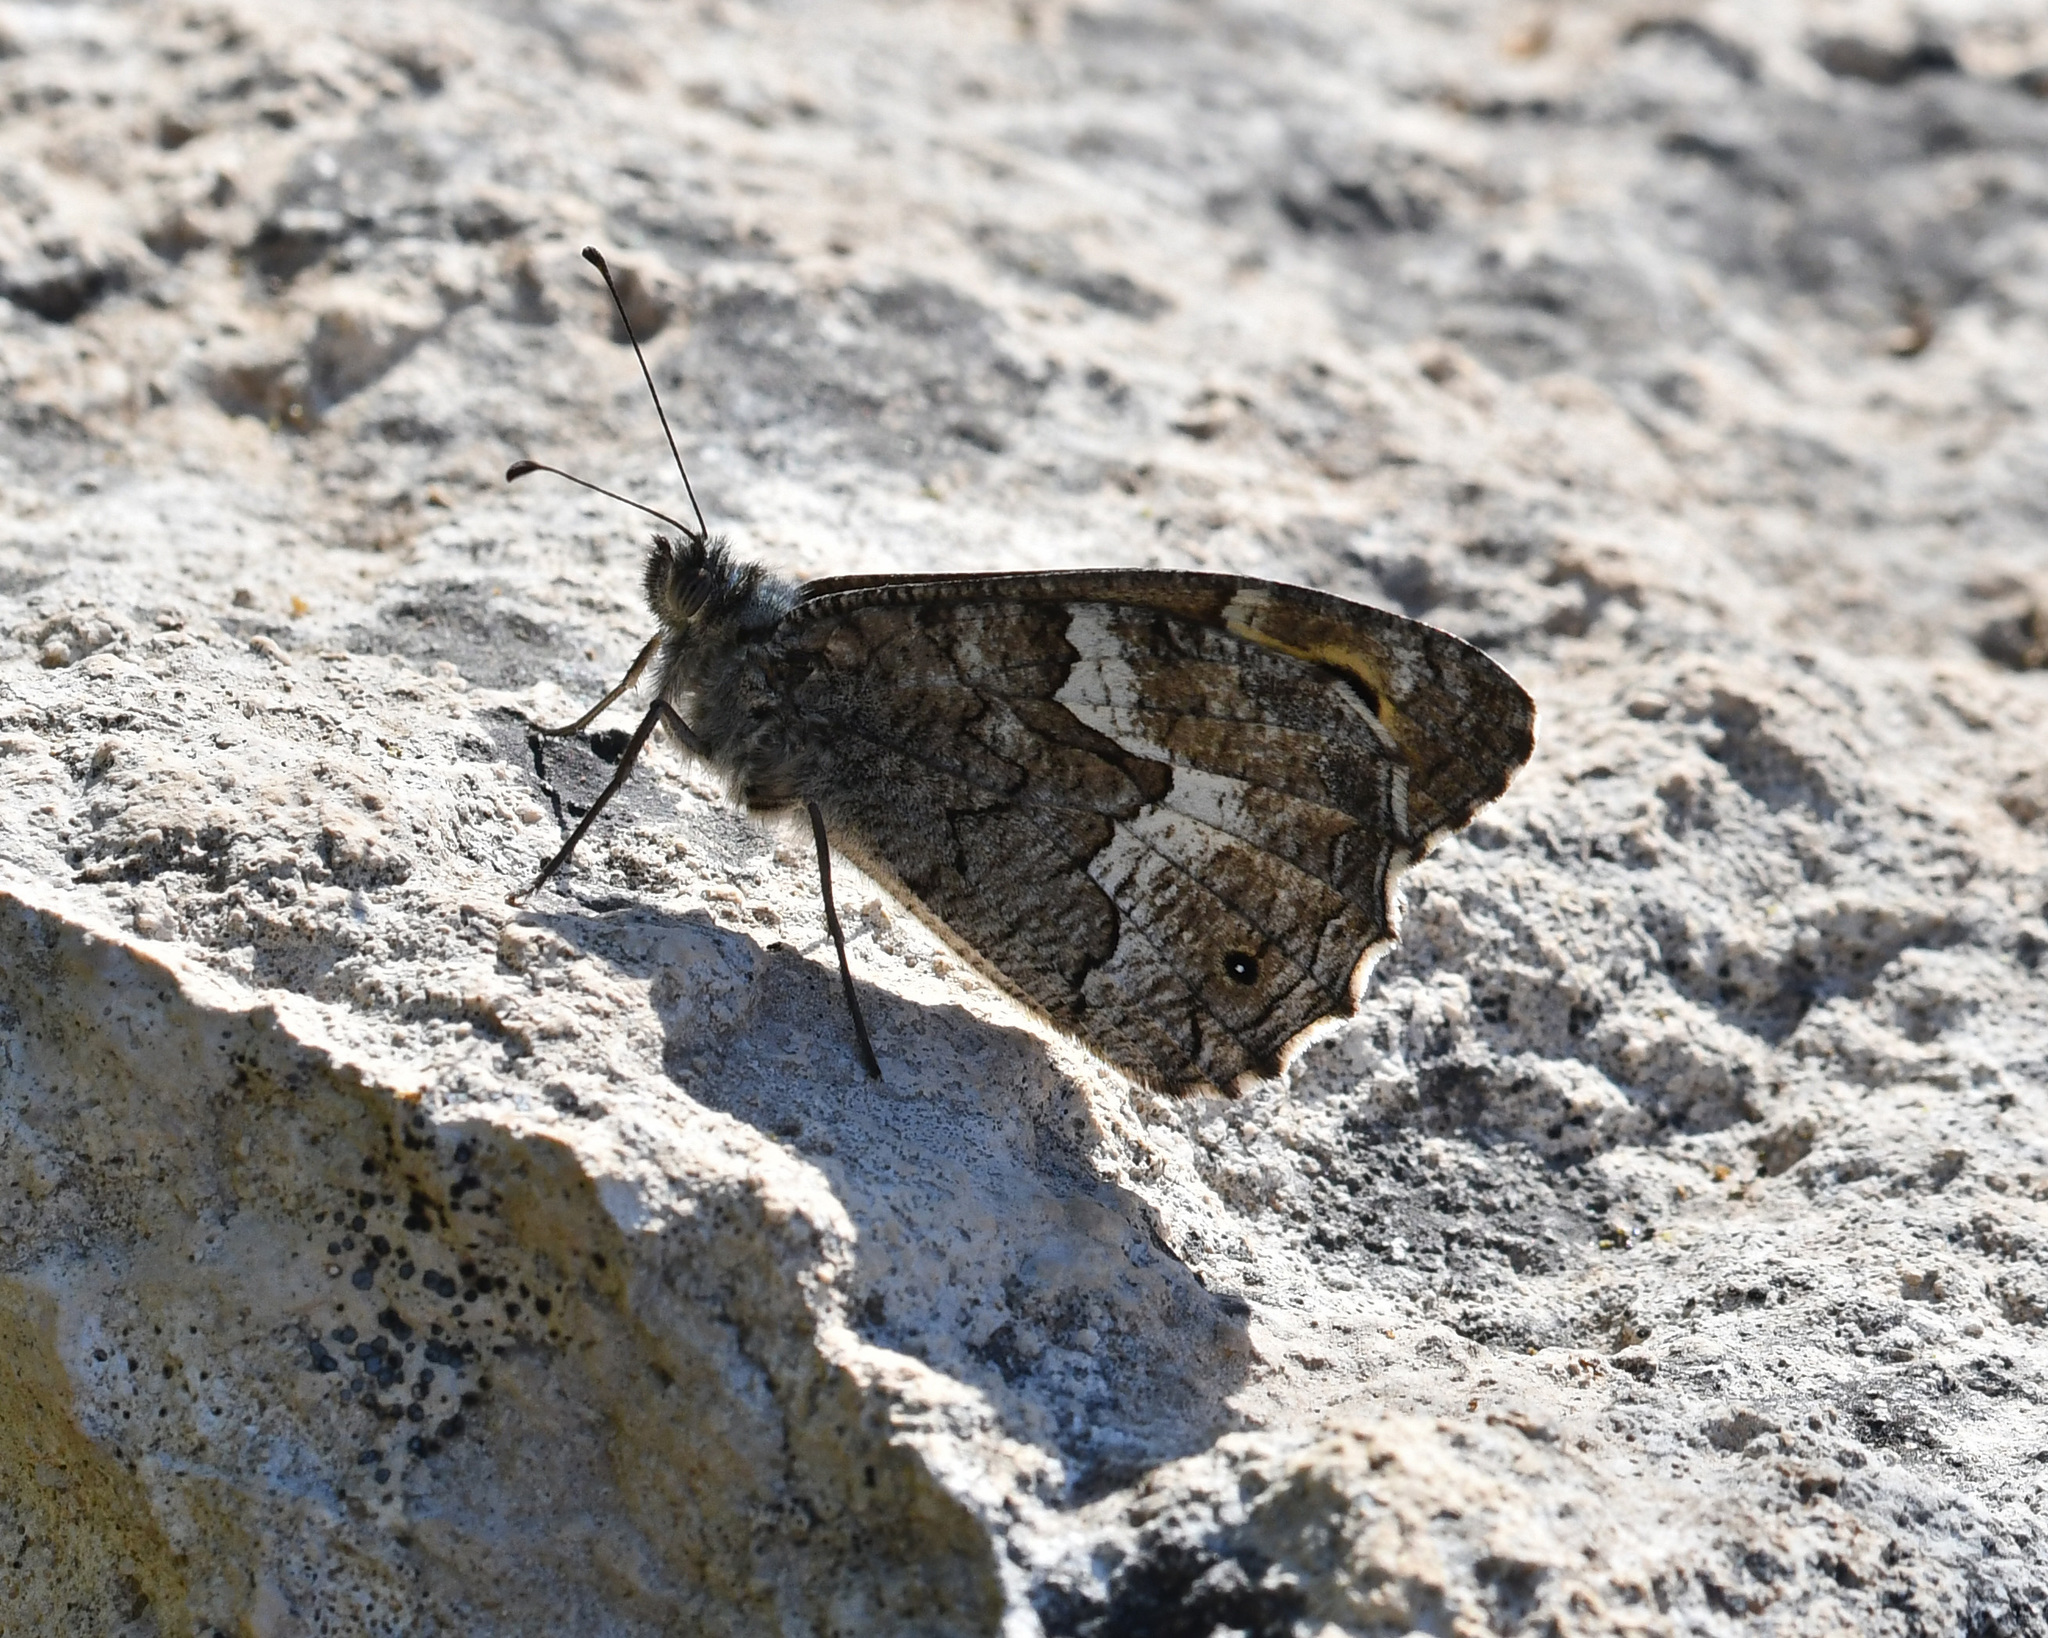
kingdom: Animalia
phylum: Arthropoda
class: Insecta
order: Lepidoptera
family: Nymphalidae
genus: Hipparchia
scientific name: Hipparchia cypriensis
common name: Cyprus grayling
